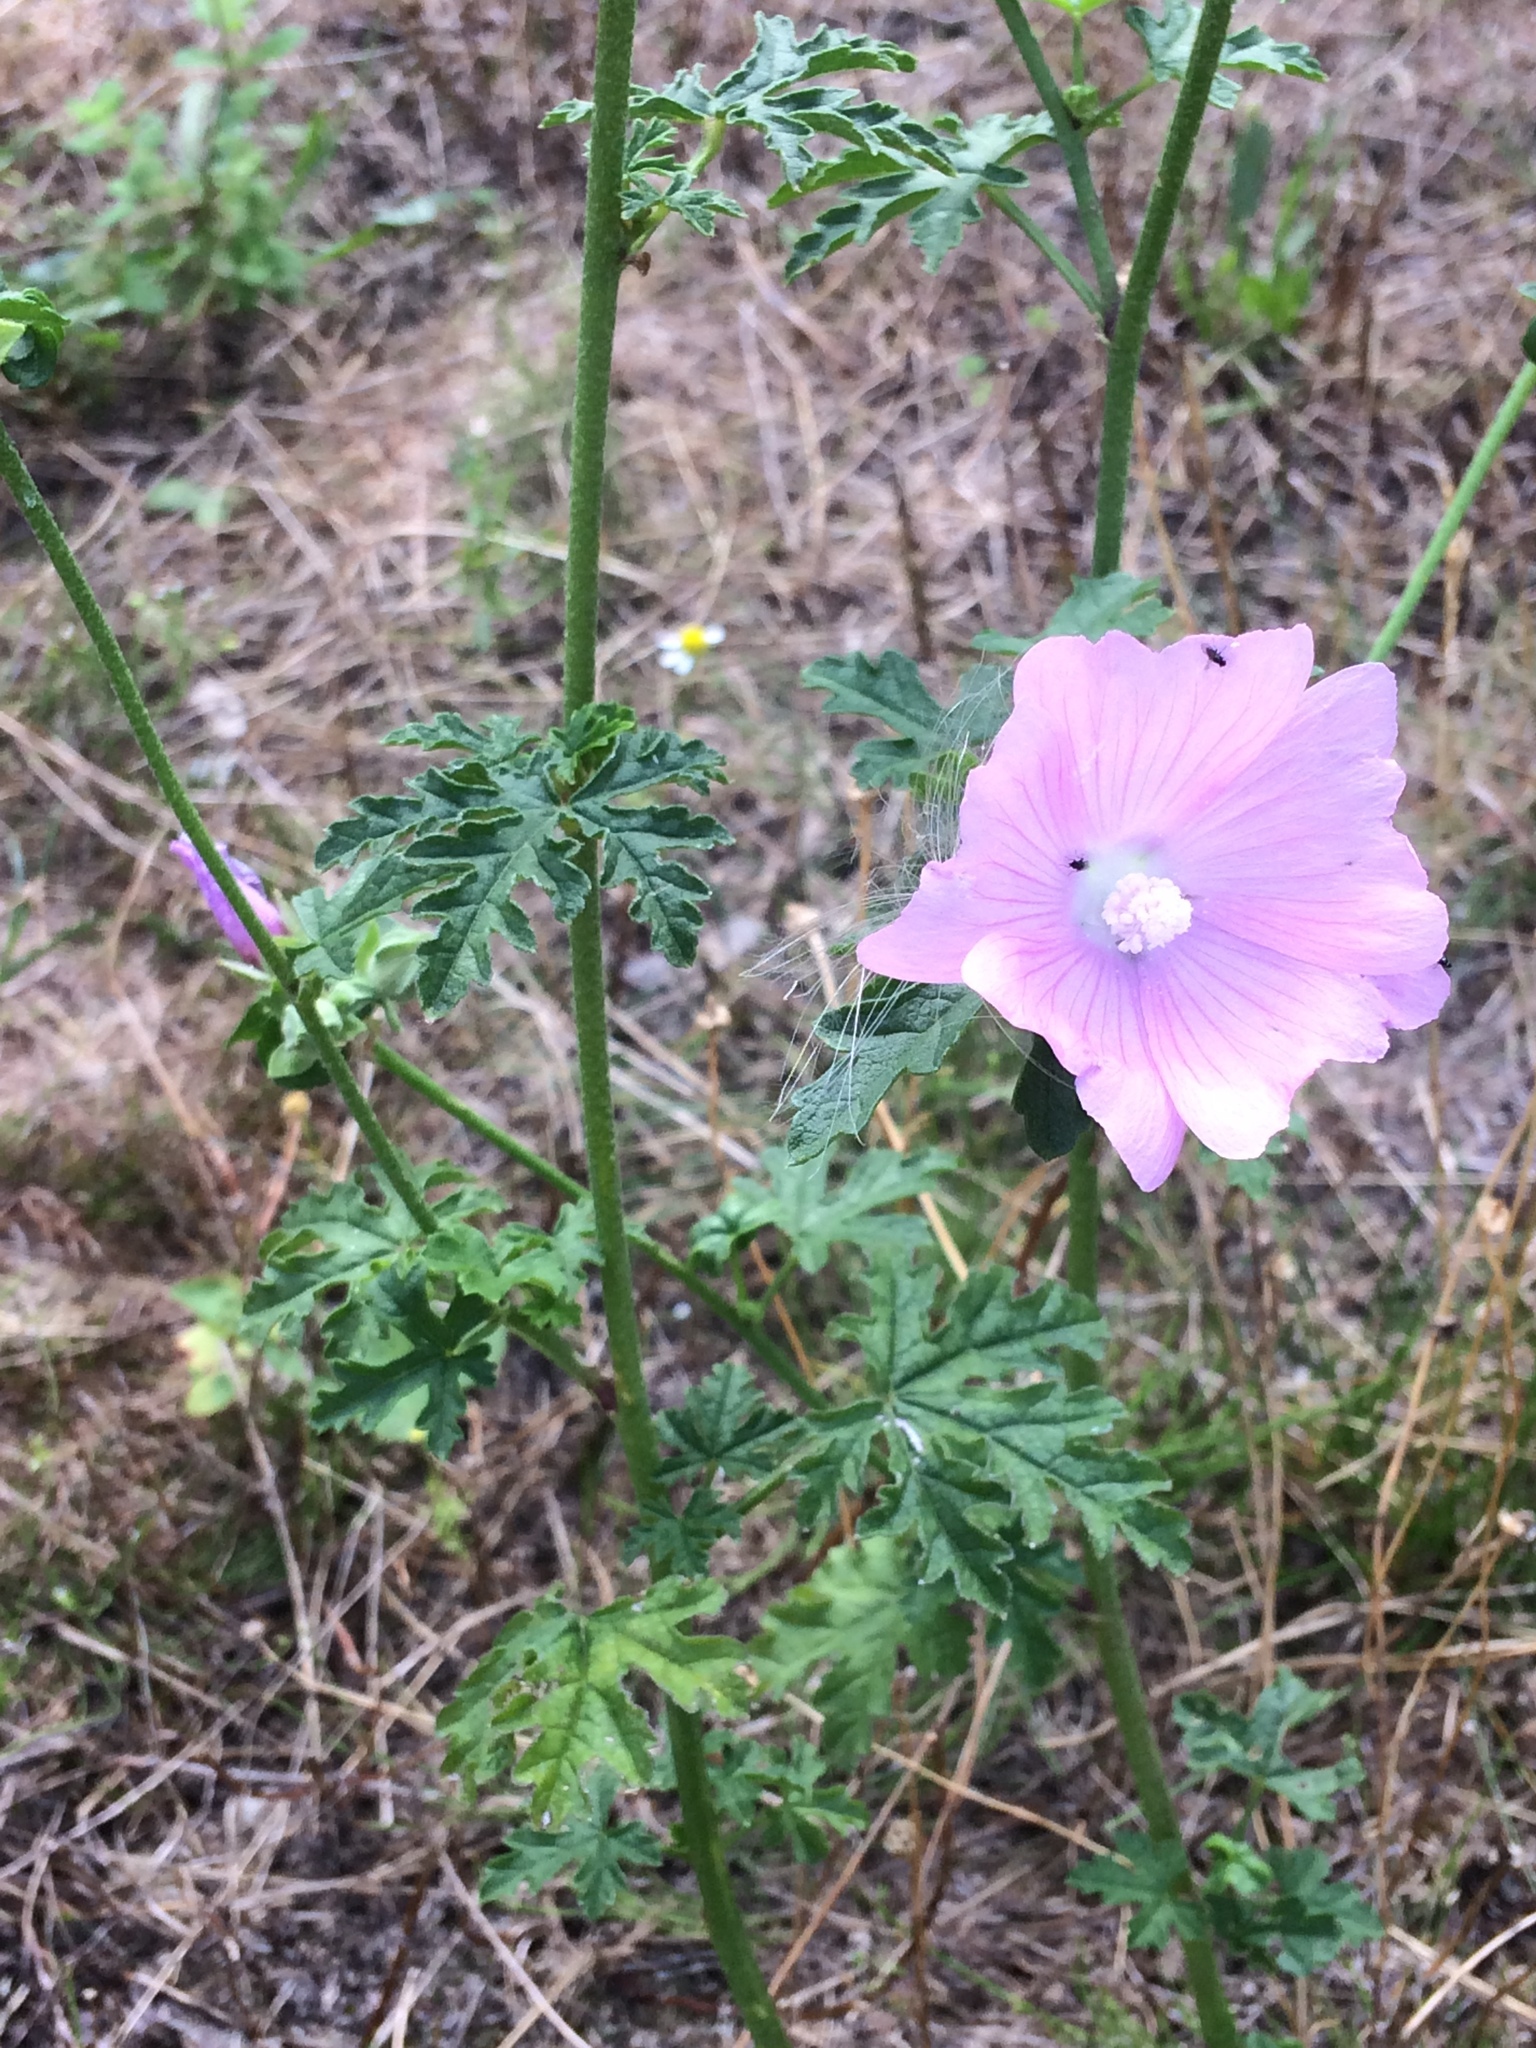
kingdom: Plantae
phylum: Tracheophyta
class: Magnoliopsida
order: Malvales
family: Malvaceae
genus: Malva
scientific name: Malva moschata
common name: Musk mallow
